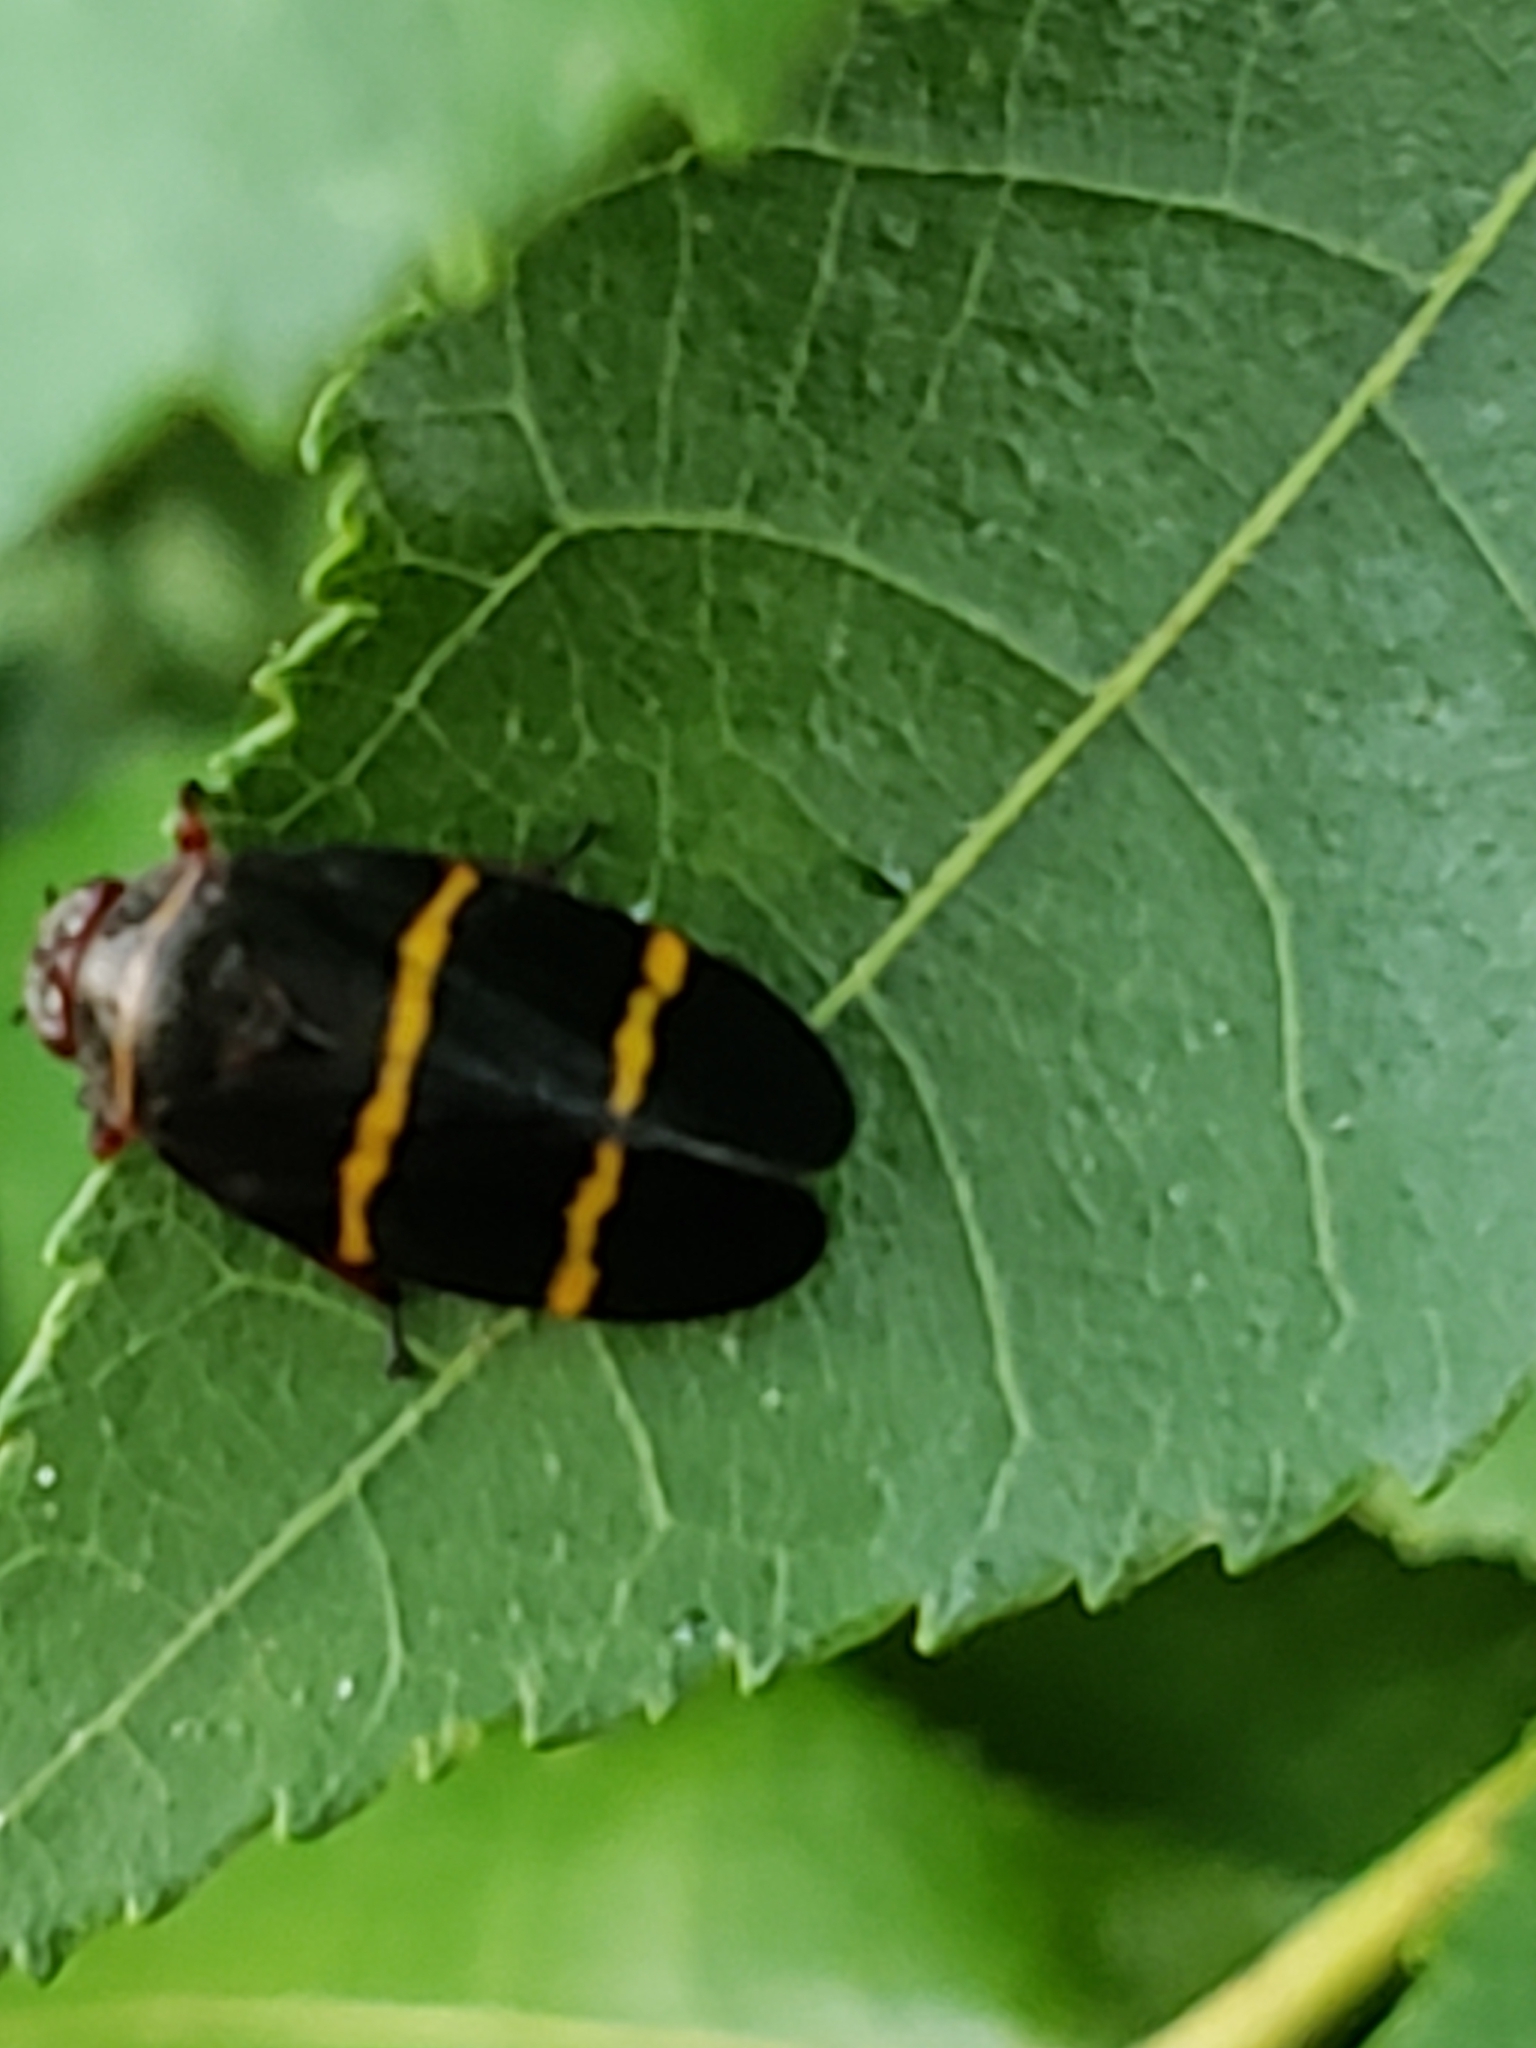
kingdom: Animalia
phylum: Arthropoda
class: Insecta
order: Hemiptera
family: Cercopidae
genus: Prosapia
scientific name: Prosapia bicincta
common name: Twolined spittlebug
